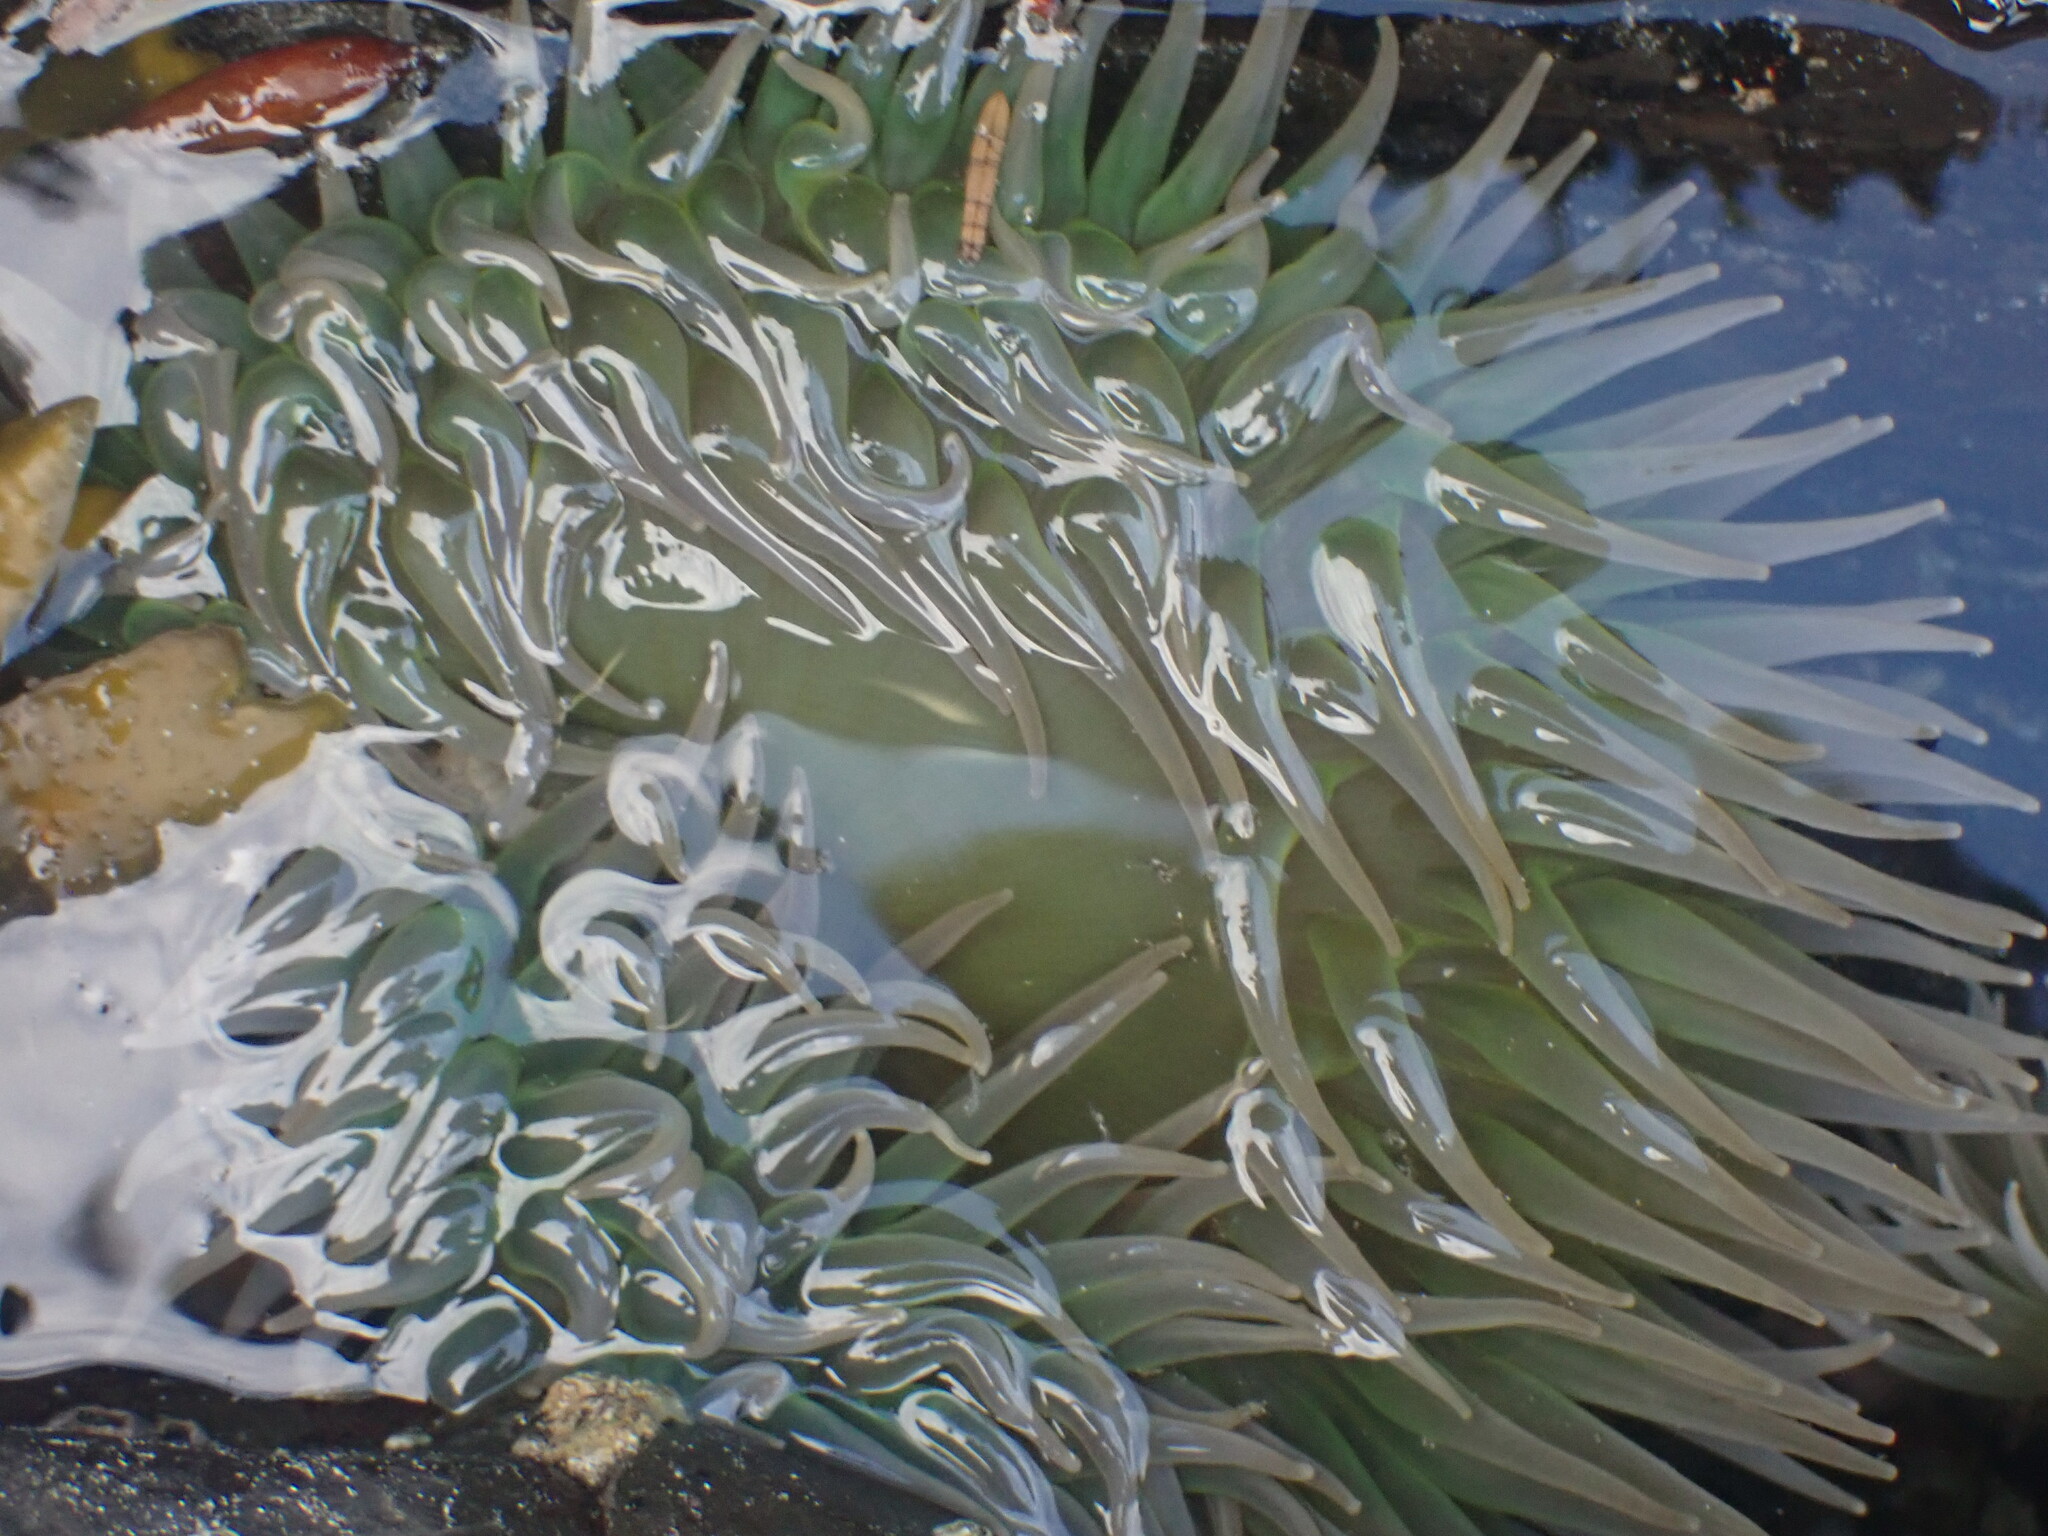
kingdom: Animalia
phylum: Cnidaria
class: Anthozoa
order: Actiniaria
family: Actiniidae
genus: Anthopleura
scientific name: Anthopleura xanthogrammica
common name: Giant green anemone
